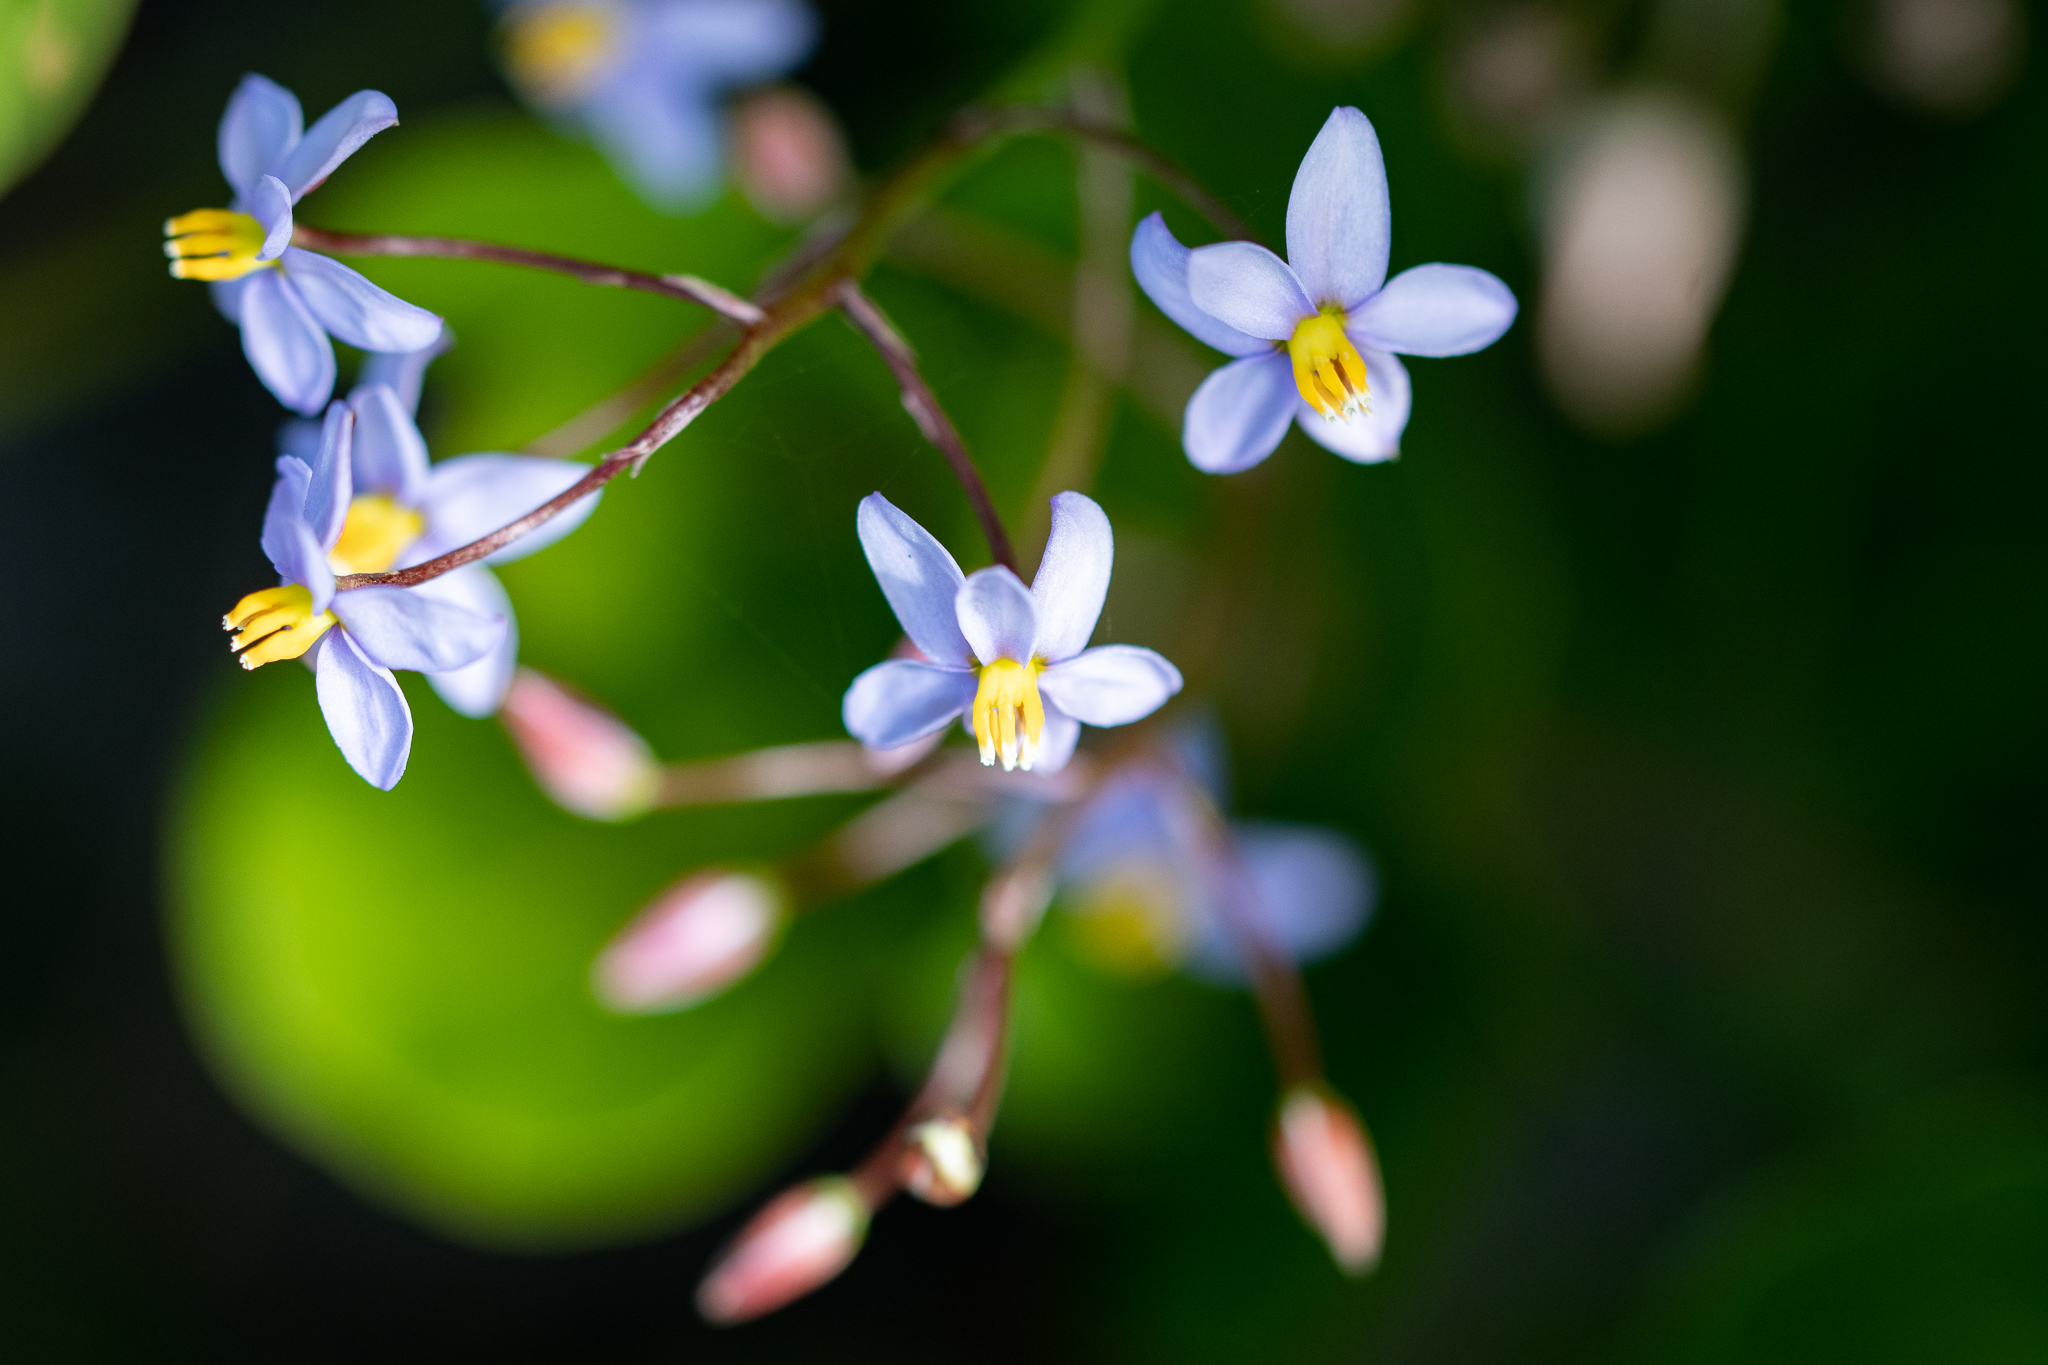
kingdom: Plantae
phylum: Tracheophyta
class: Liliopsida
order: Asparagales
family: Tecophilaeaceae
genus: Cyanella
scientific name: Cyanella hyacinthoides
